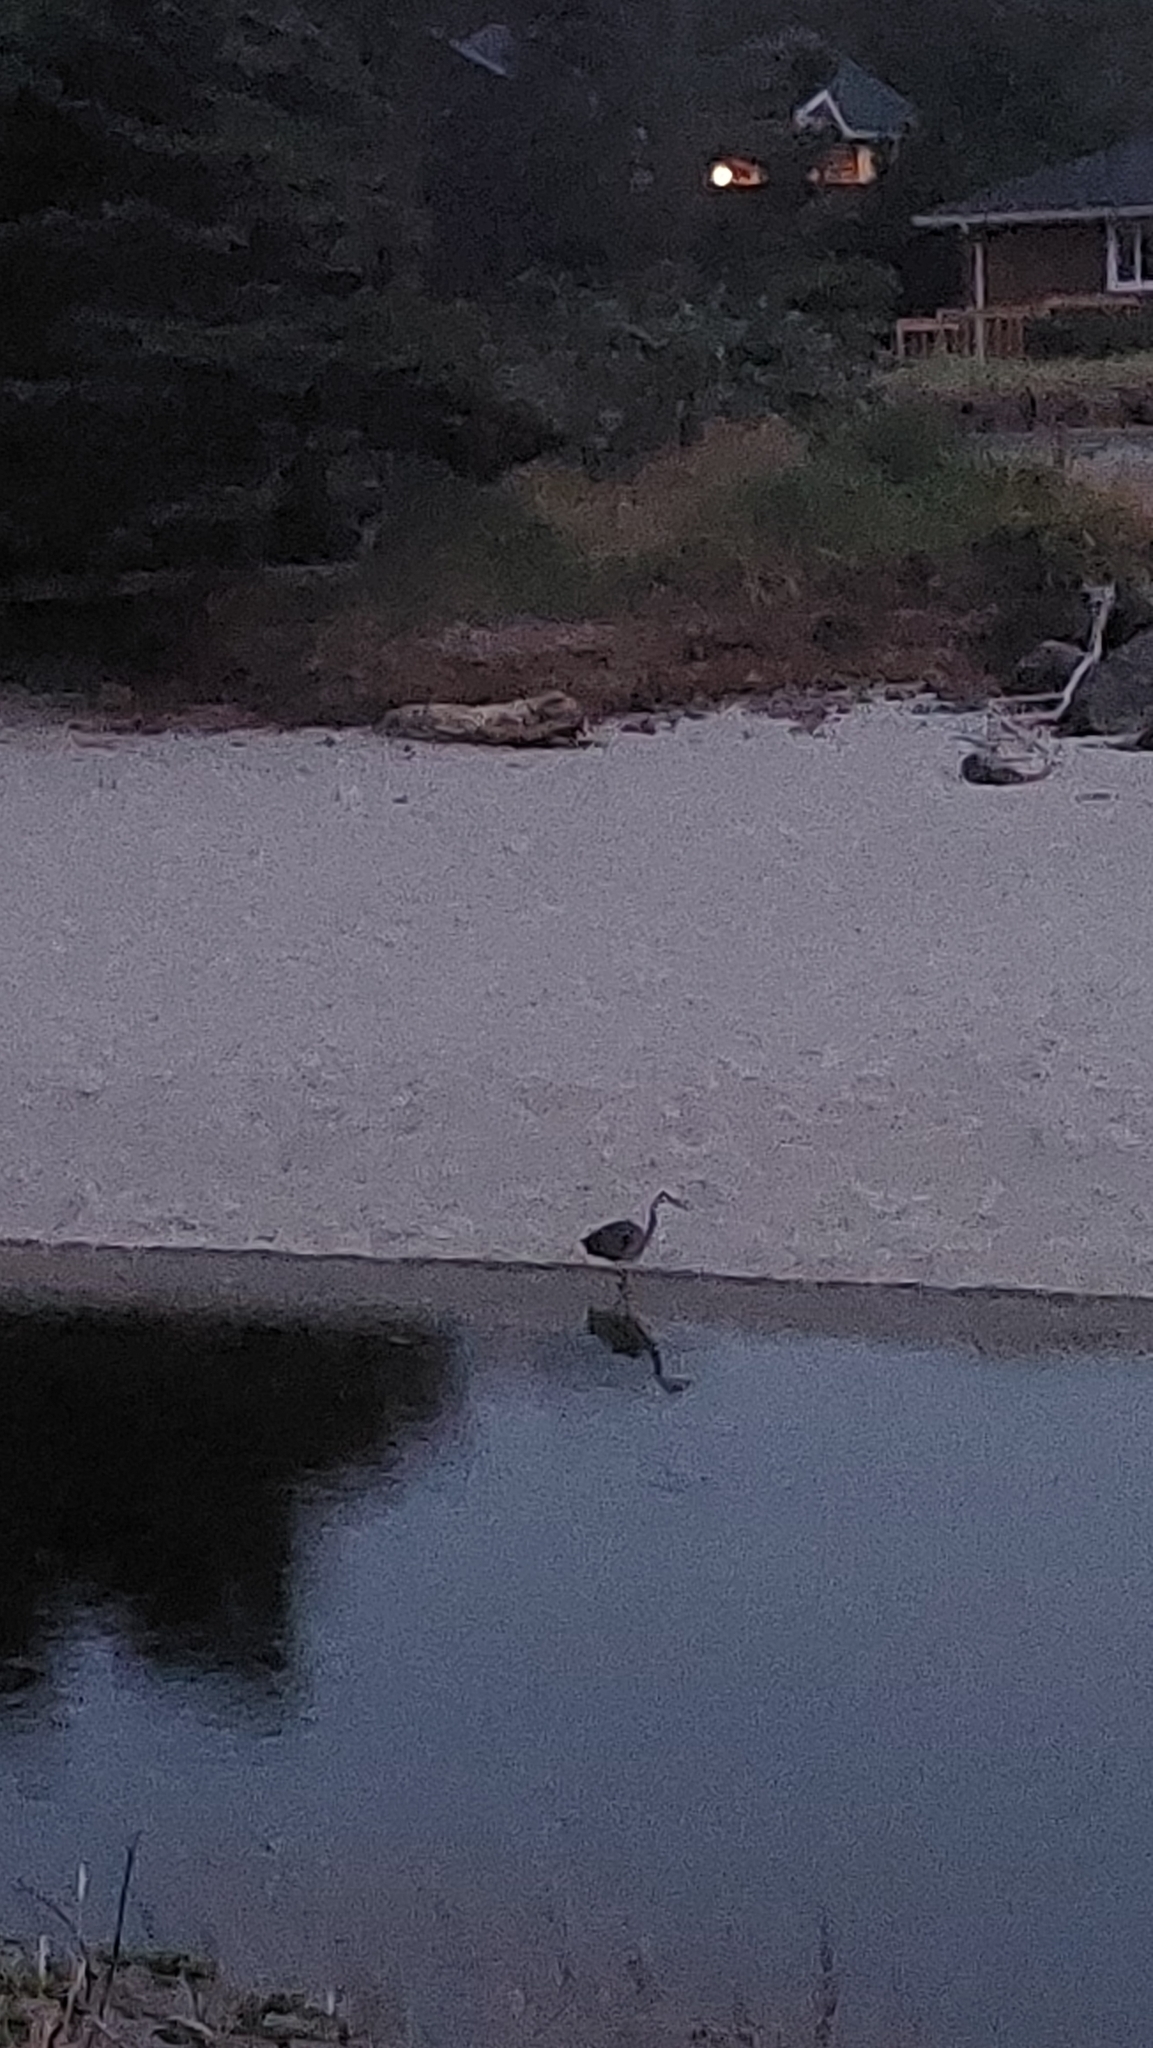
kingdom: Animalia
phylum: Chordata
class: Aves
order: Pelecaniformes
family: Ardeidae
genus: Ardea
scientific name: Ardea herodias
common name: Great blue heron
